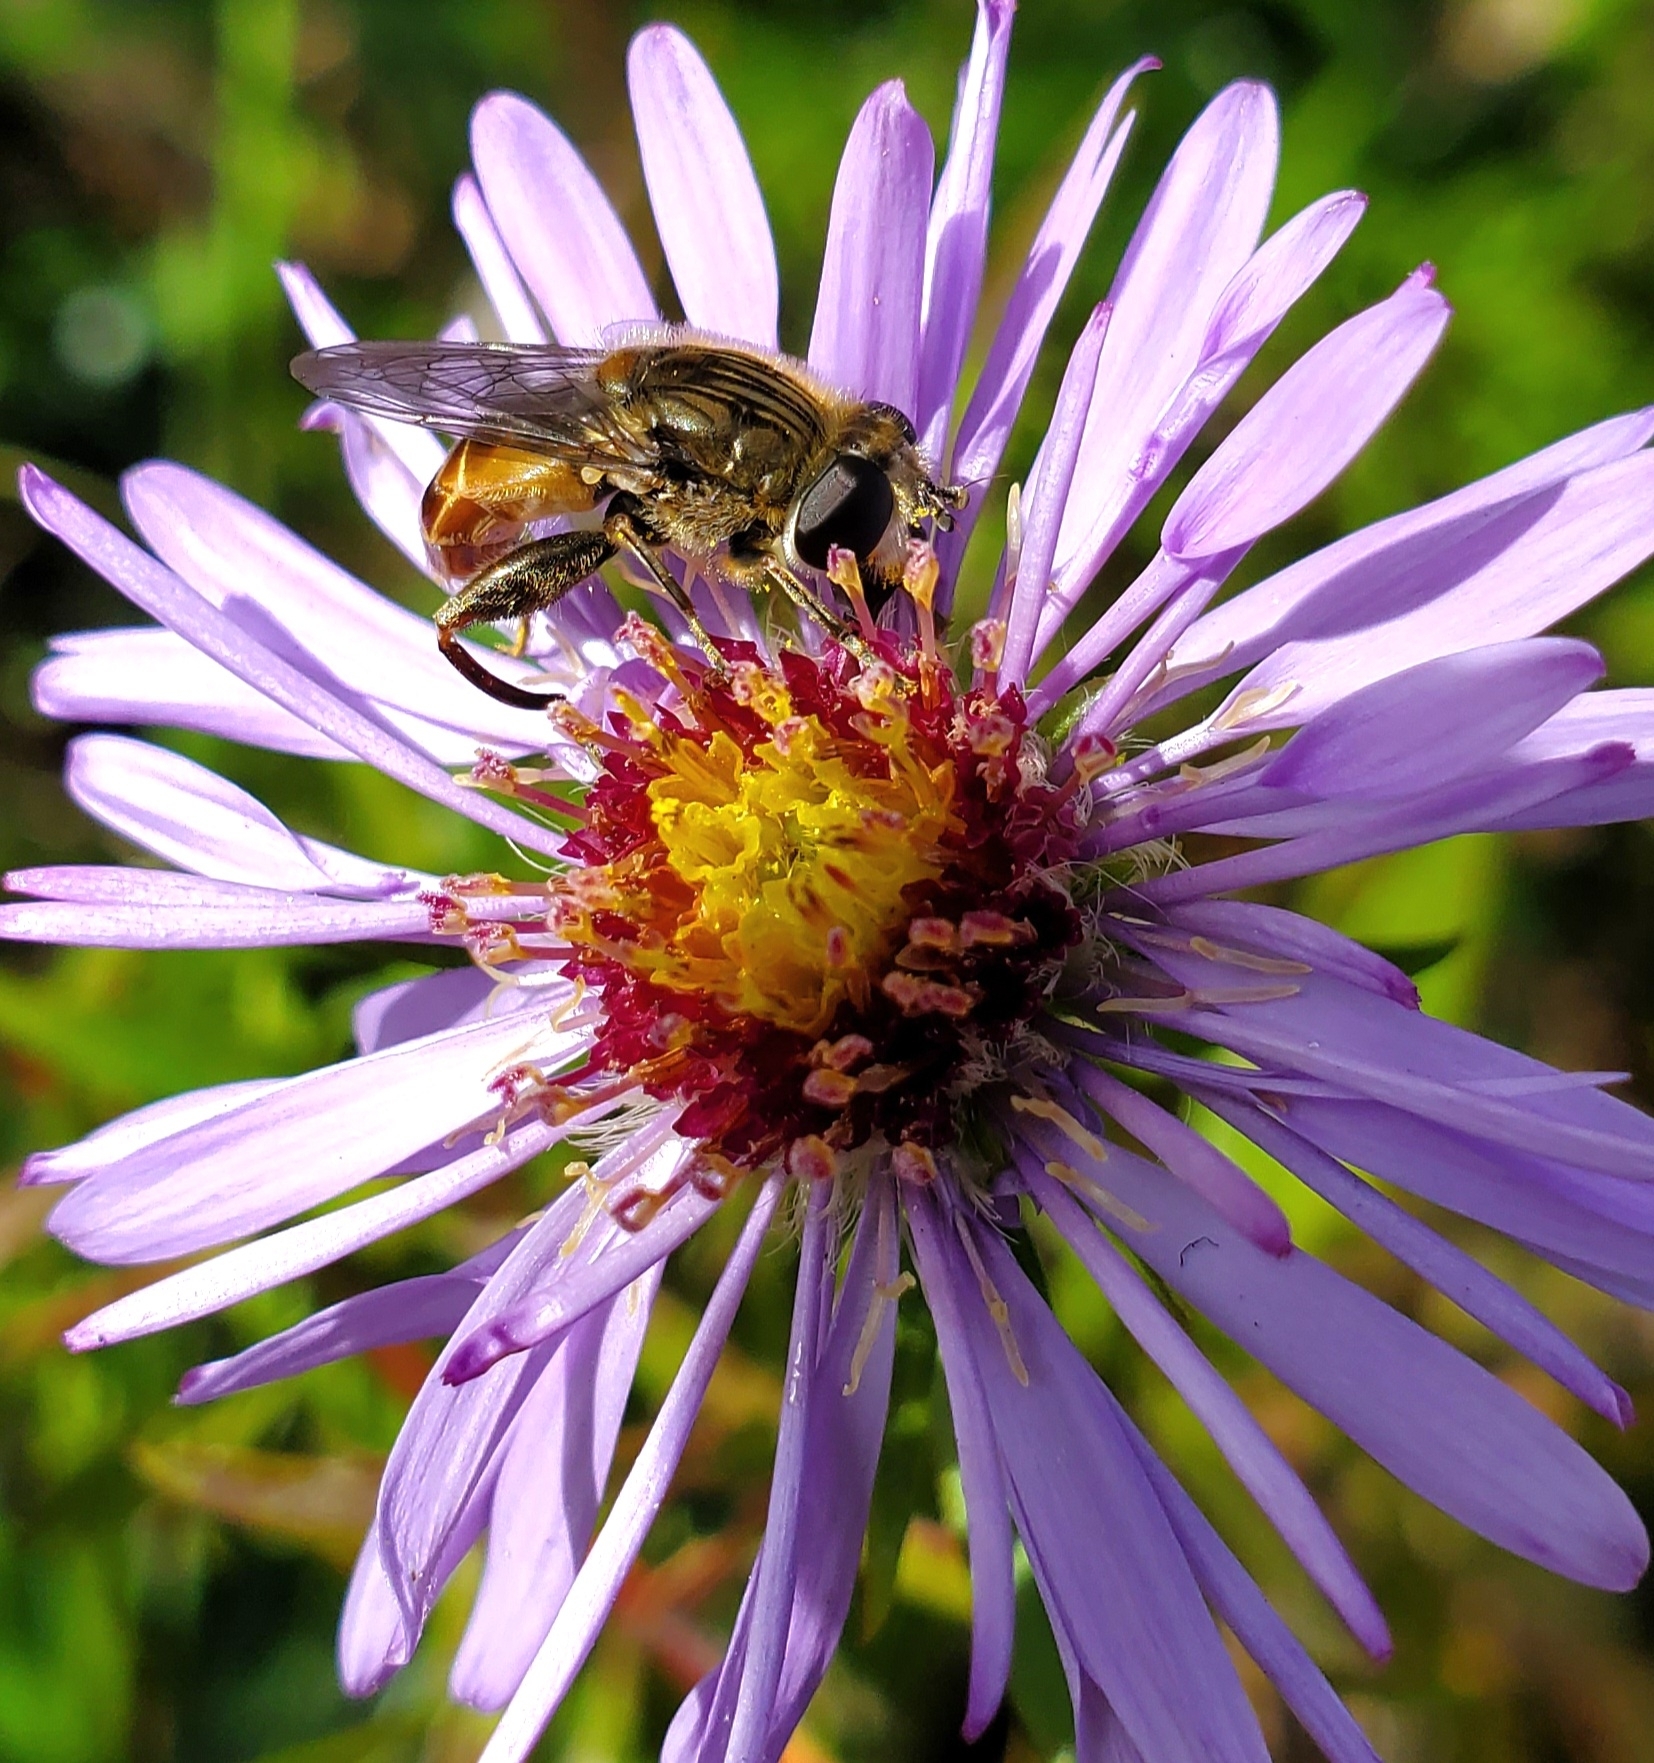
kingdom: Animalia
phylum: Arthropoda
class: Insecta
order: Diptera
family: Syrphidae
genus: Asemosyrphus
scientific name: Asemosyrphus polygrammus
